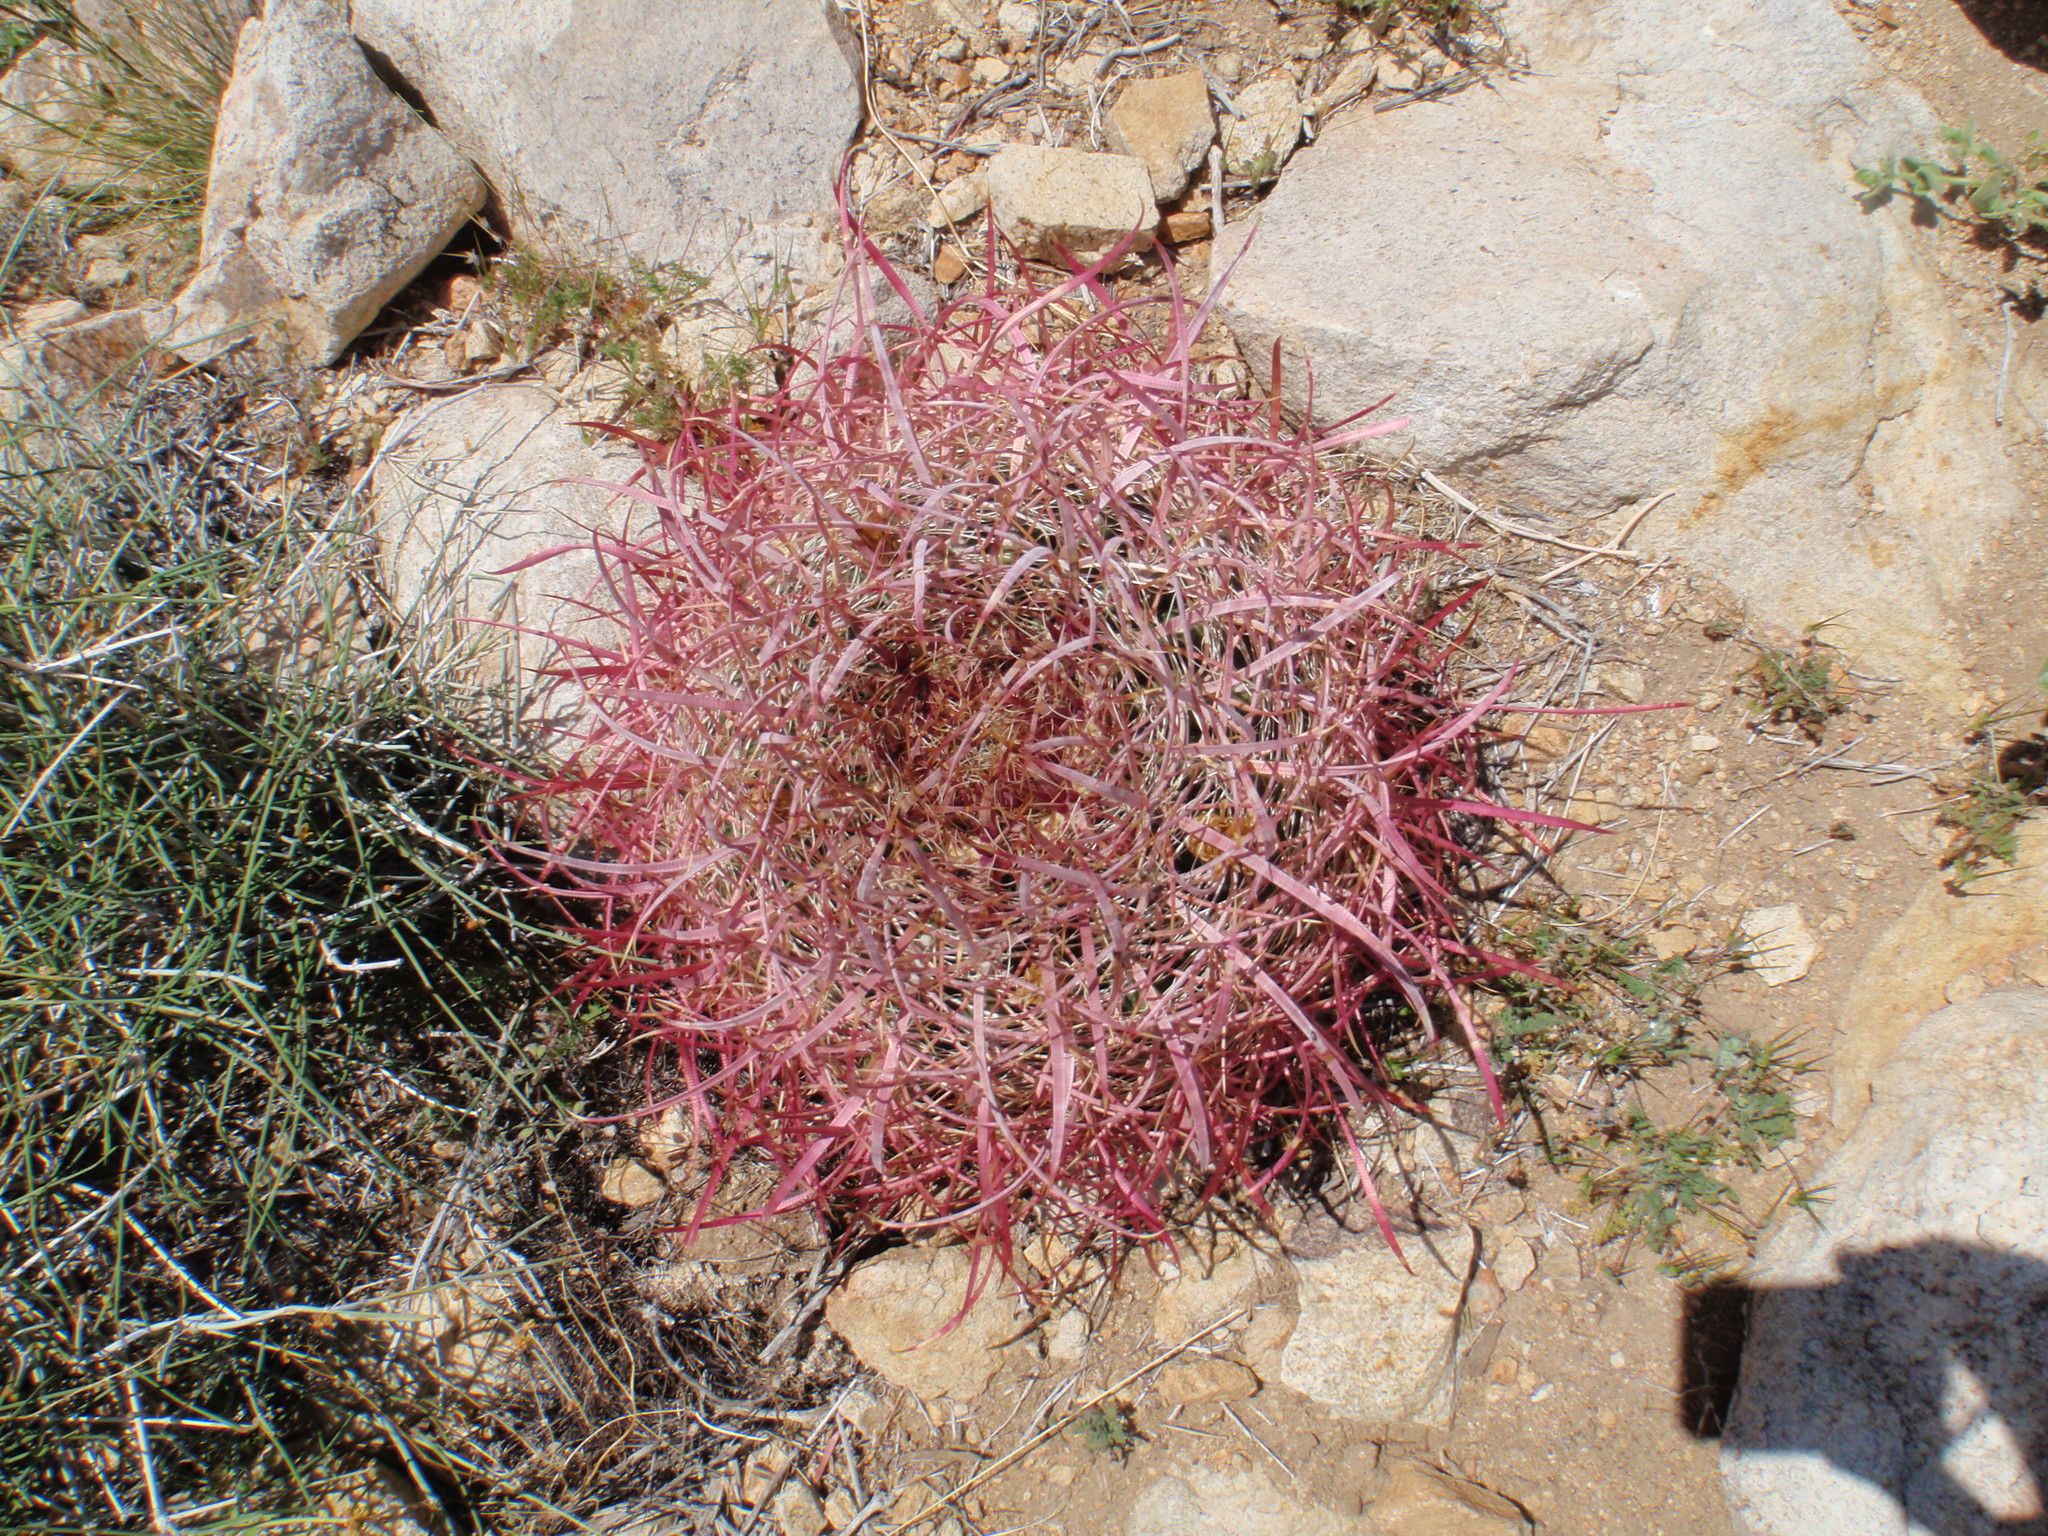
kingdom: Plantae
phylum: Tracheophyta
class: Magnoliopsida
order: Caryophyllales
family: Cactaceae
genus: Ferocactus
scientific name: Ferocactus cylindraceus
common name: California barrel cactus
